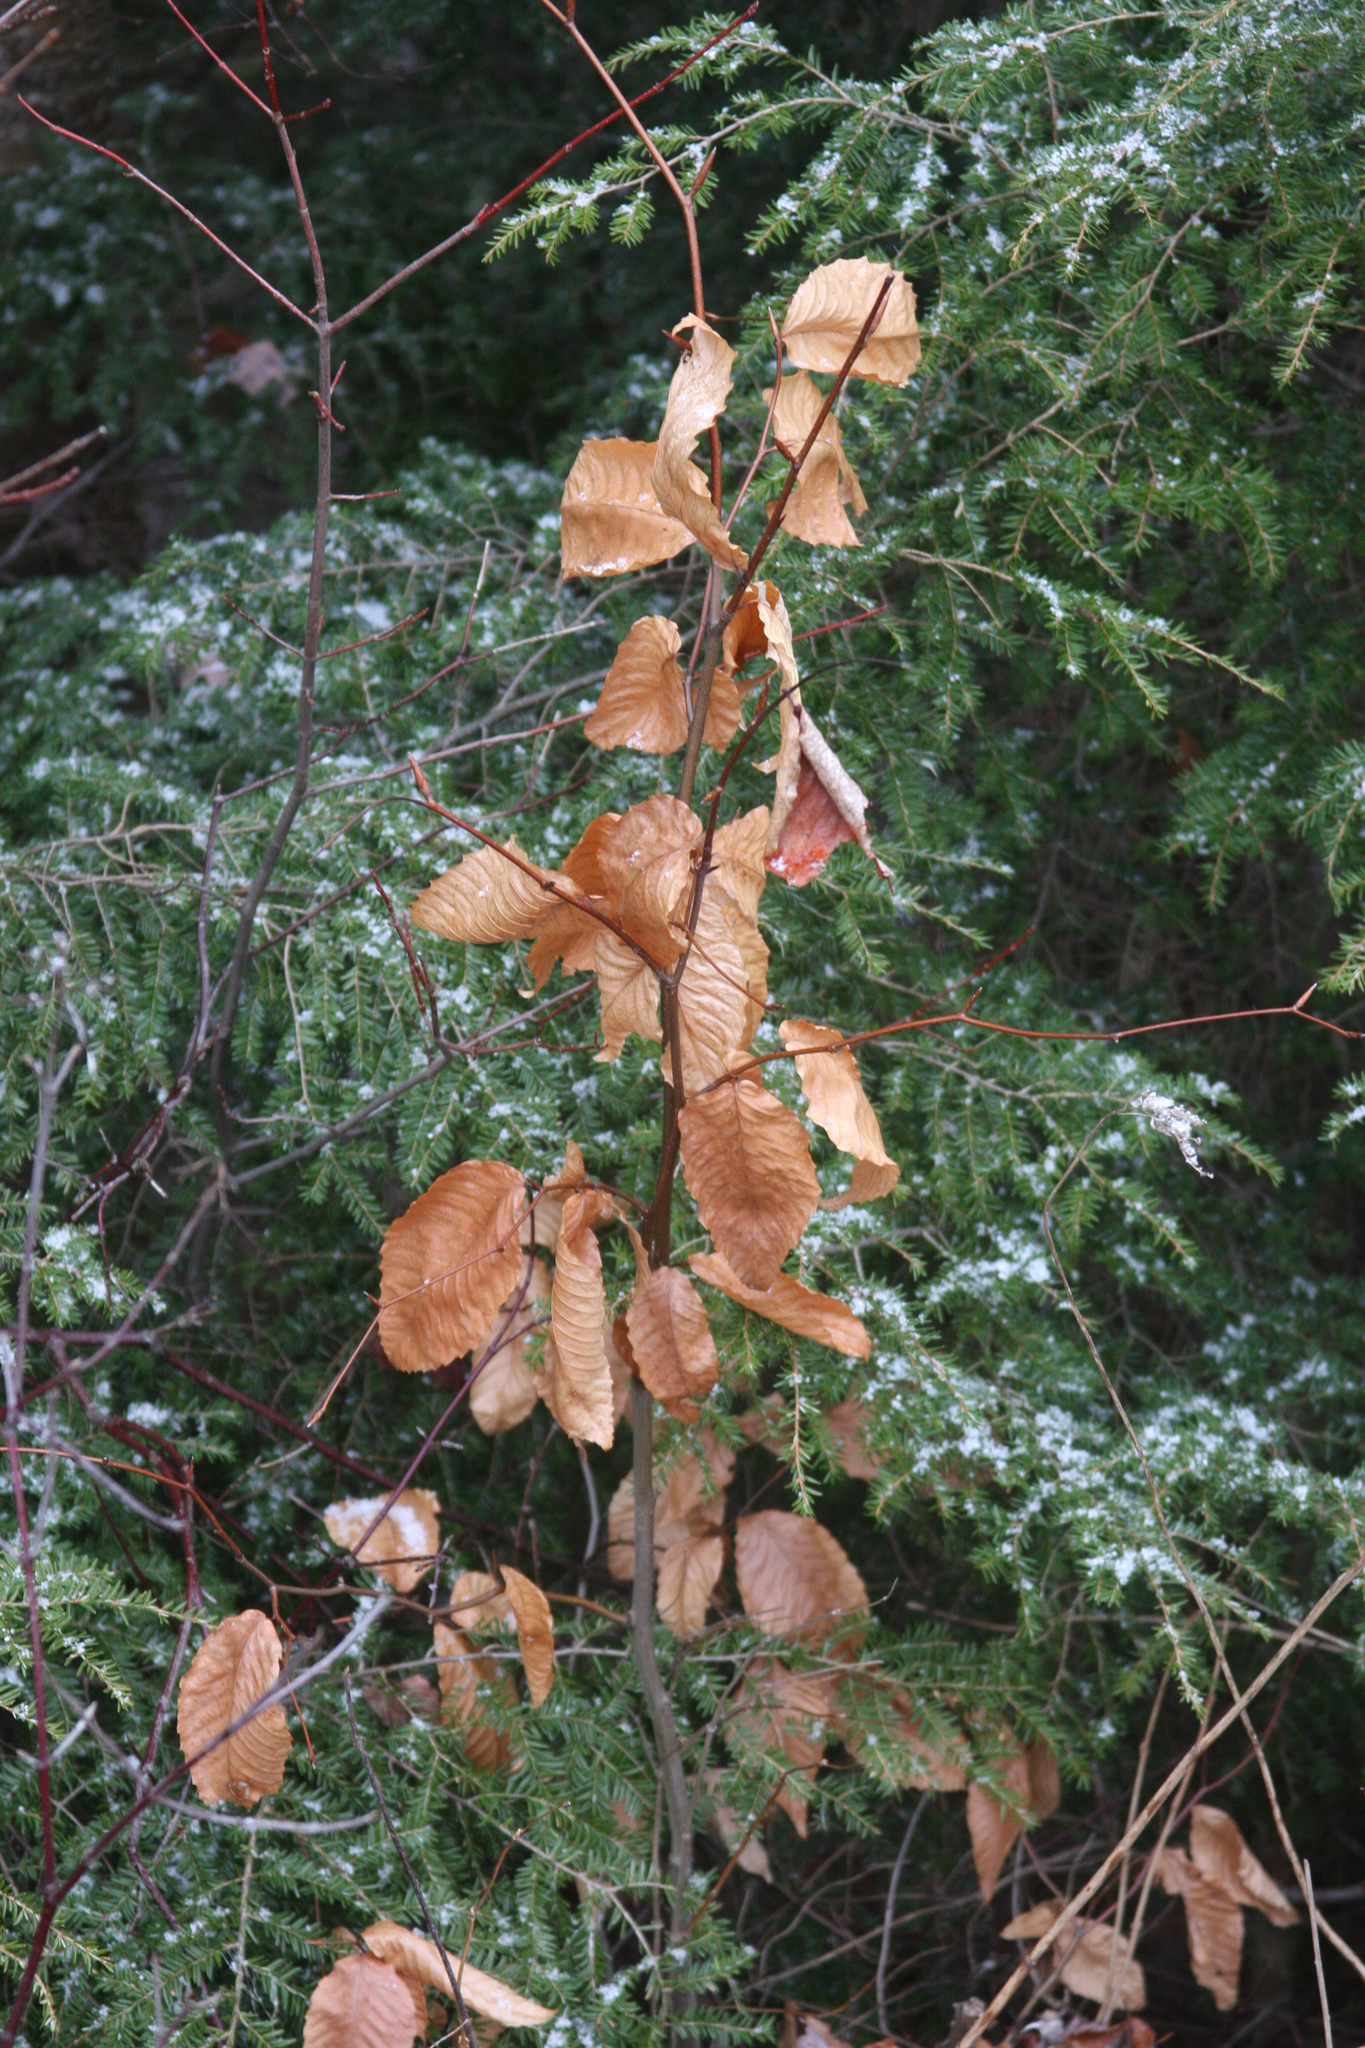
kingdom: Plantae
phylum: Tracheophyta
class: Magnoliopsida
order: Fagales
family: Fagaceae
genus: Fagus
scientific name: Fagus grandifolia
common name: American beech
